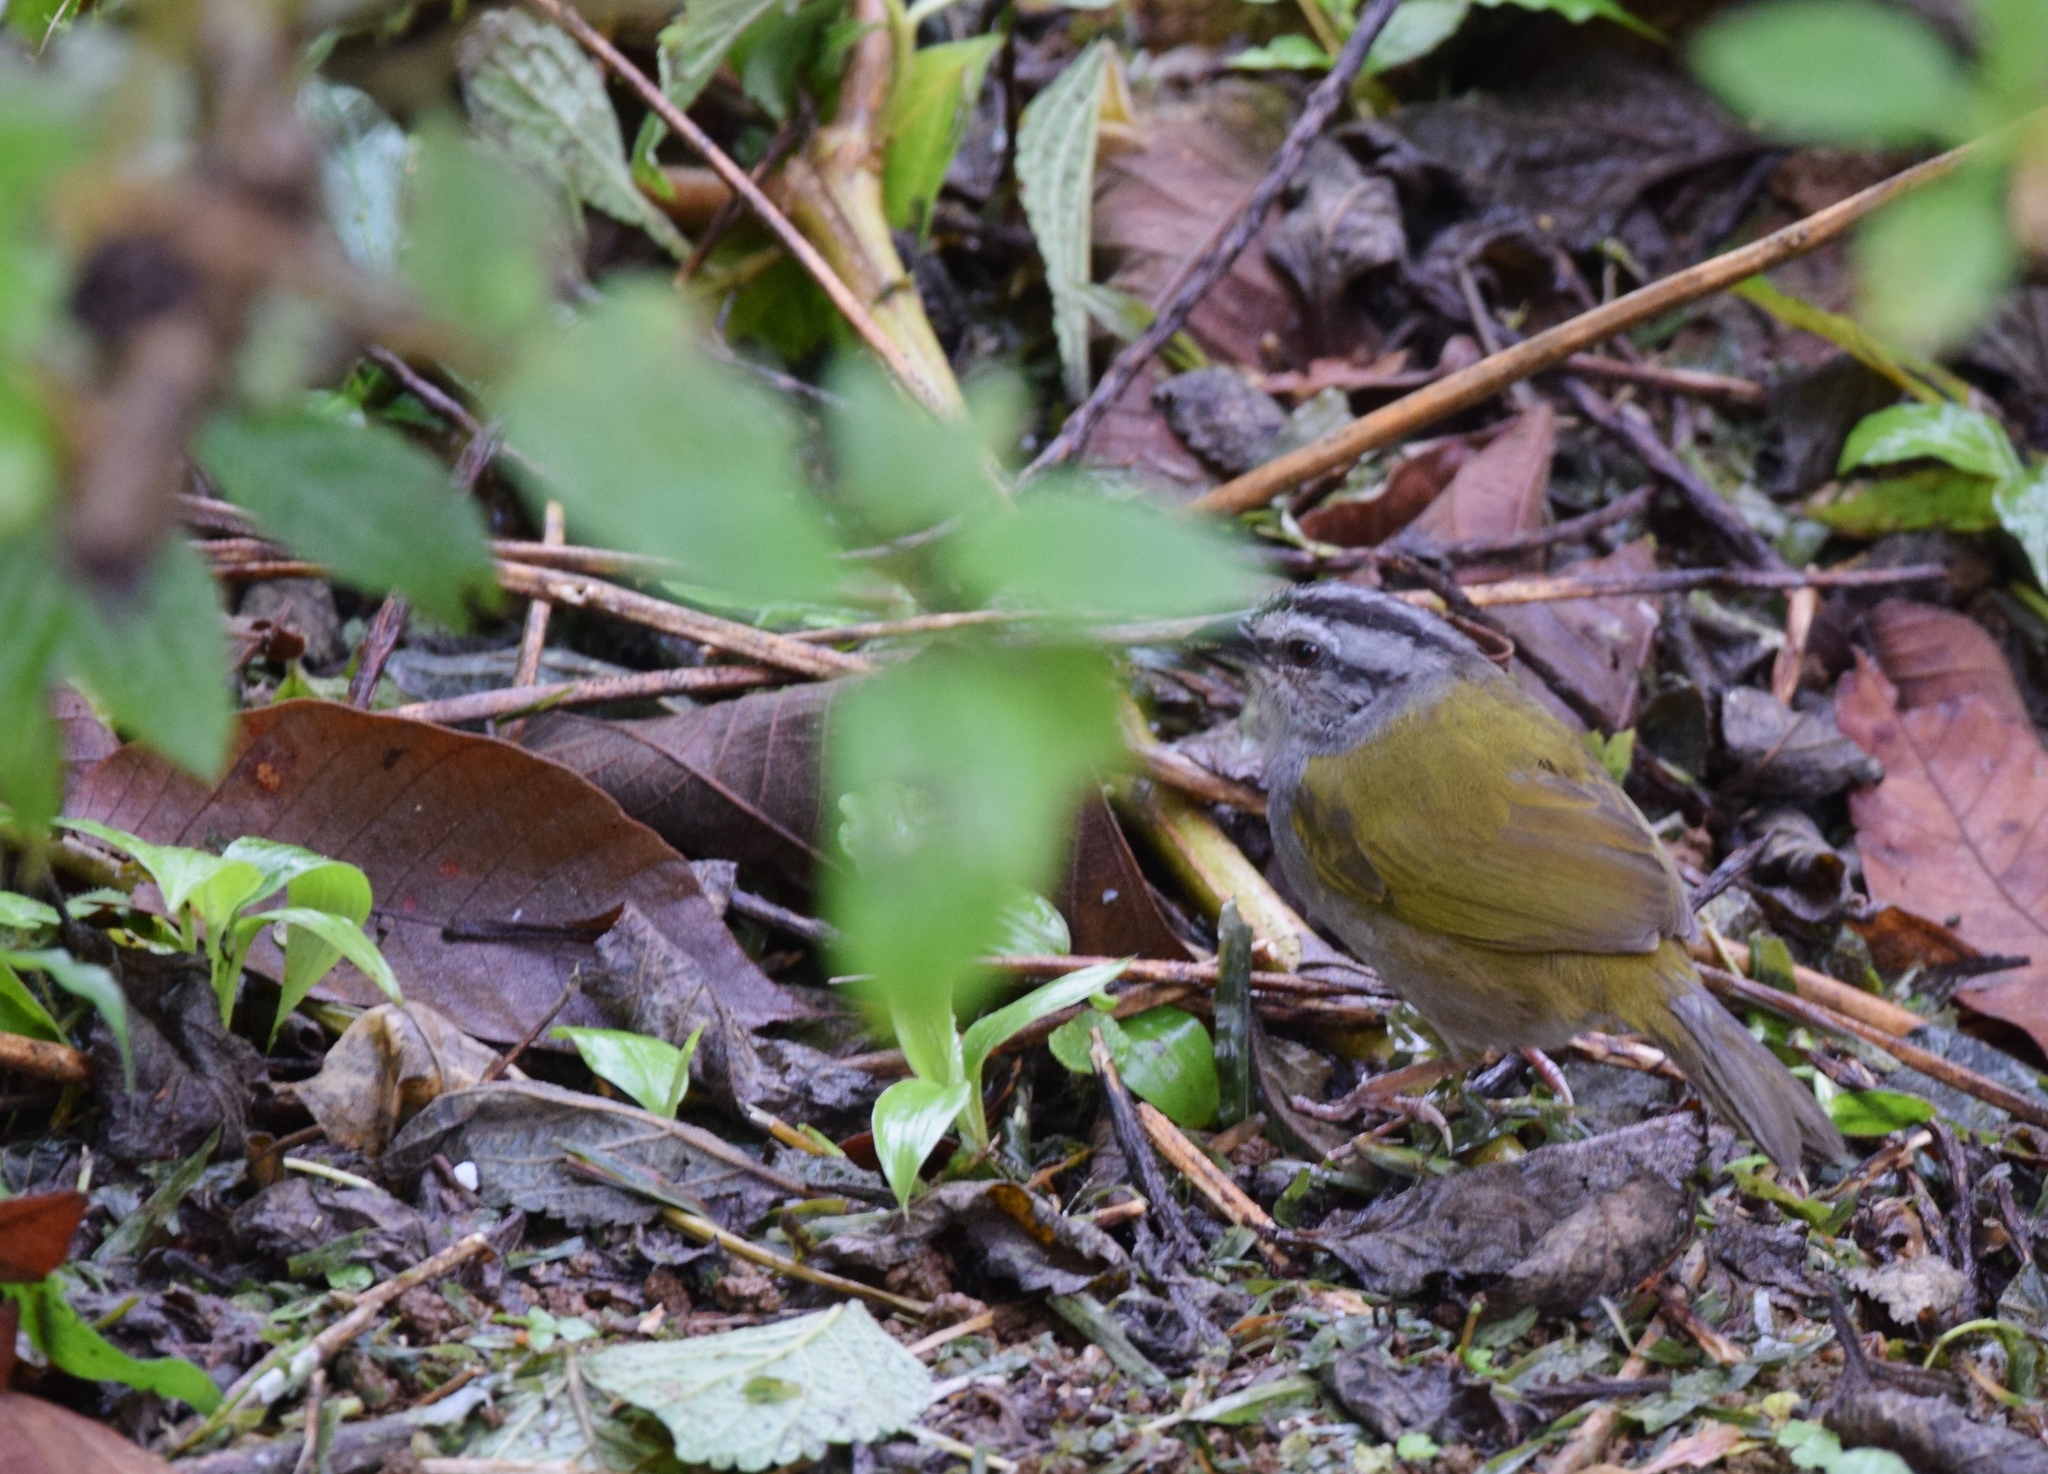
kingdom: Animalia
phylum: Chordata
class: Aves
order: Passeriformes
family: Passerellidae
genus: Arremonops
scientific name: Arremonops conirostris
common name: Black-striped sparrow
